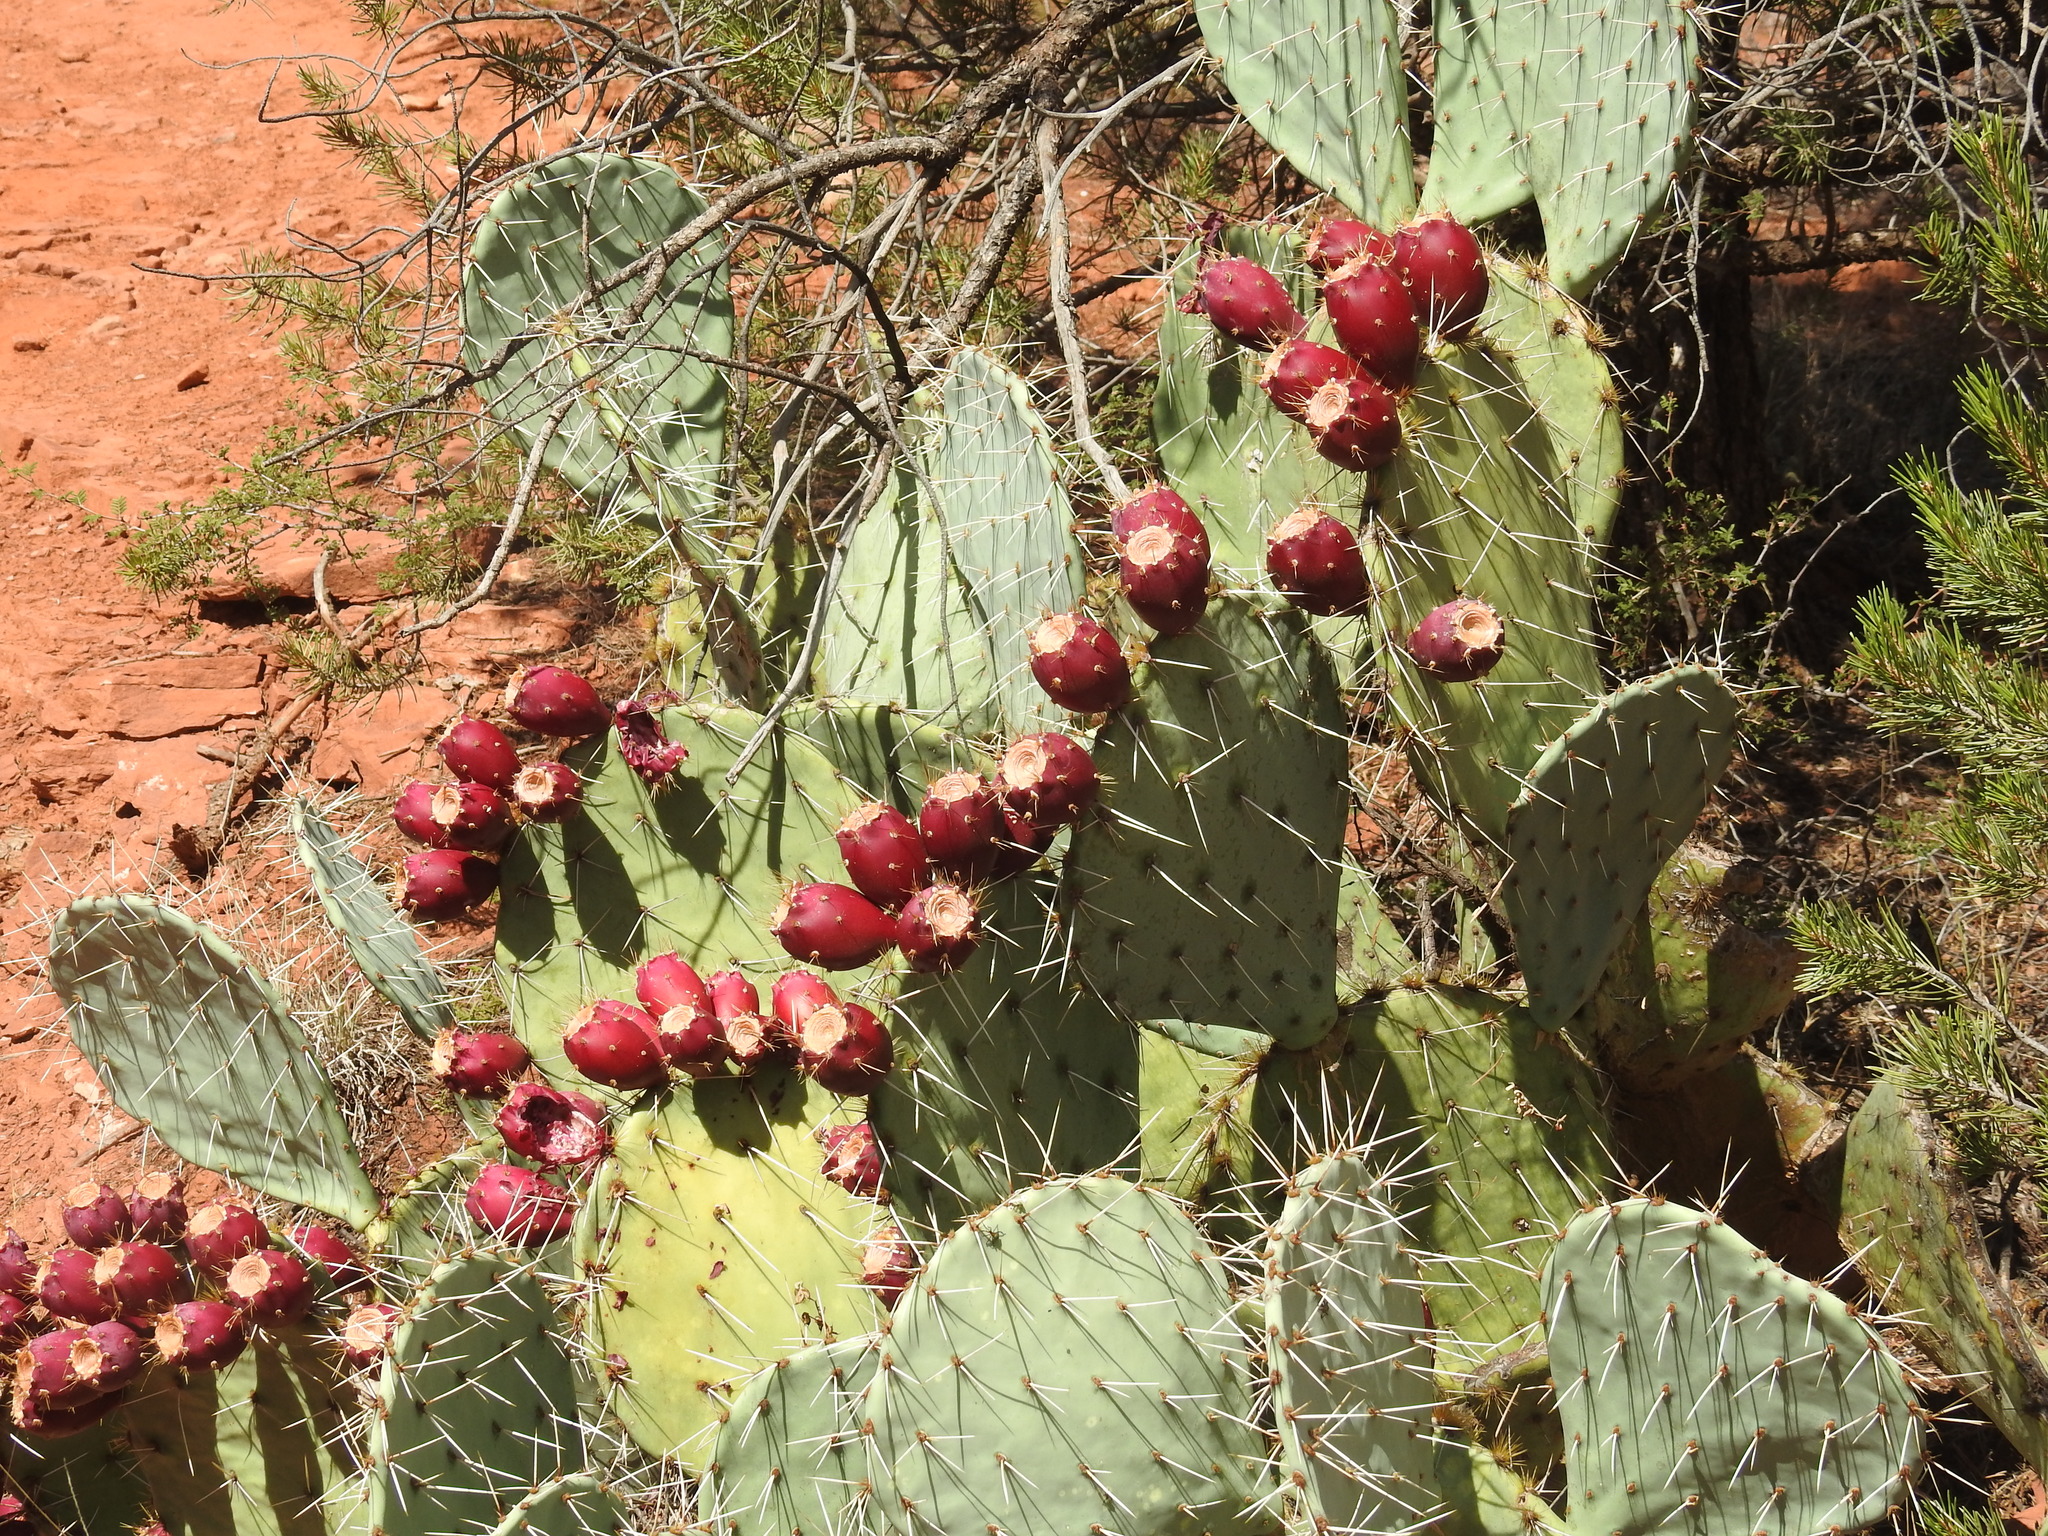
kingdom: Plantae
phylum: Tracheophyta
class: Magnoliopsida
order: Caryophyllales
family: Cactaceae
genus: Opuntia
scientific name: Opuntia engelmannii
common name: Cactus-apple
